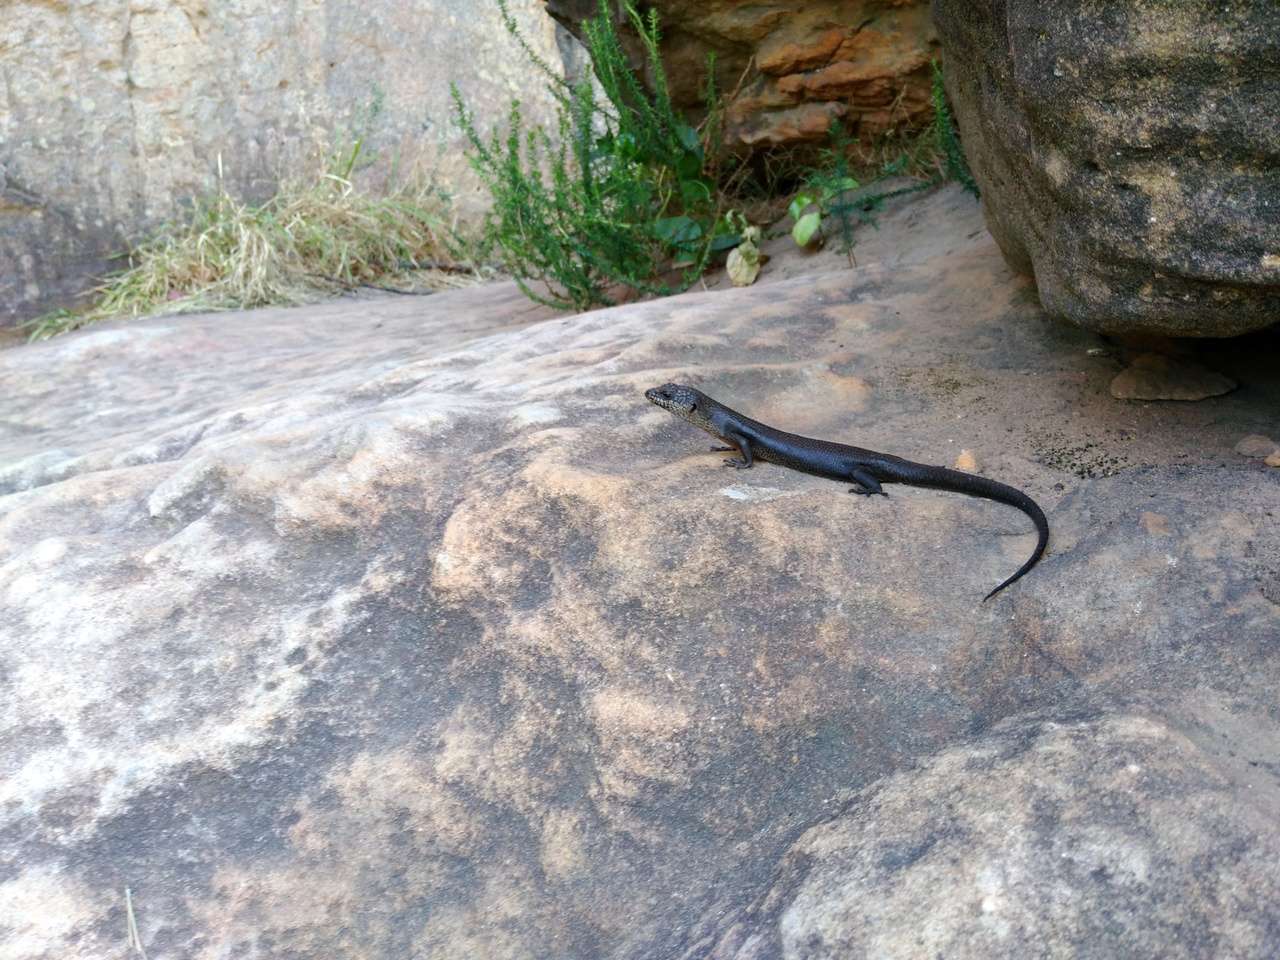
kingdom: Animalia
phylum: Chordata
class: Squamata
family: Scincidae
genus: Egernia
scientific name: Egernia saxatilis
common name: Black crevice-skink
